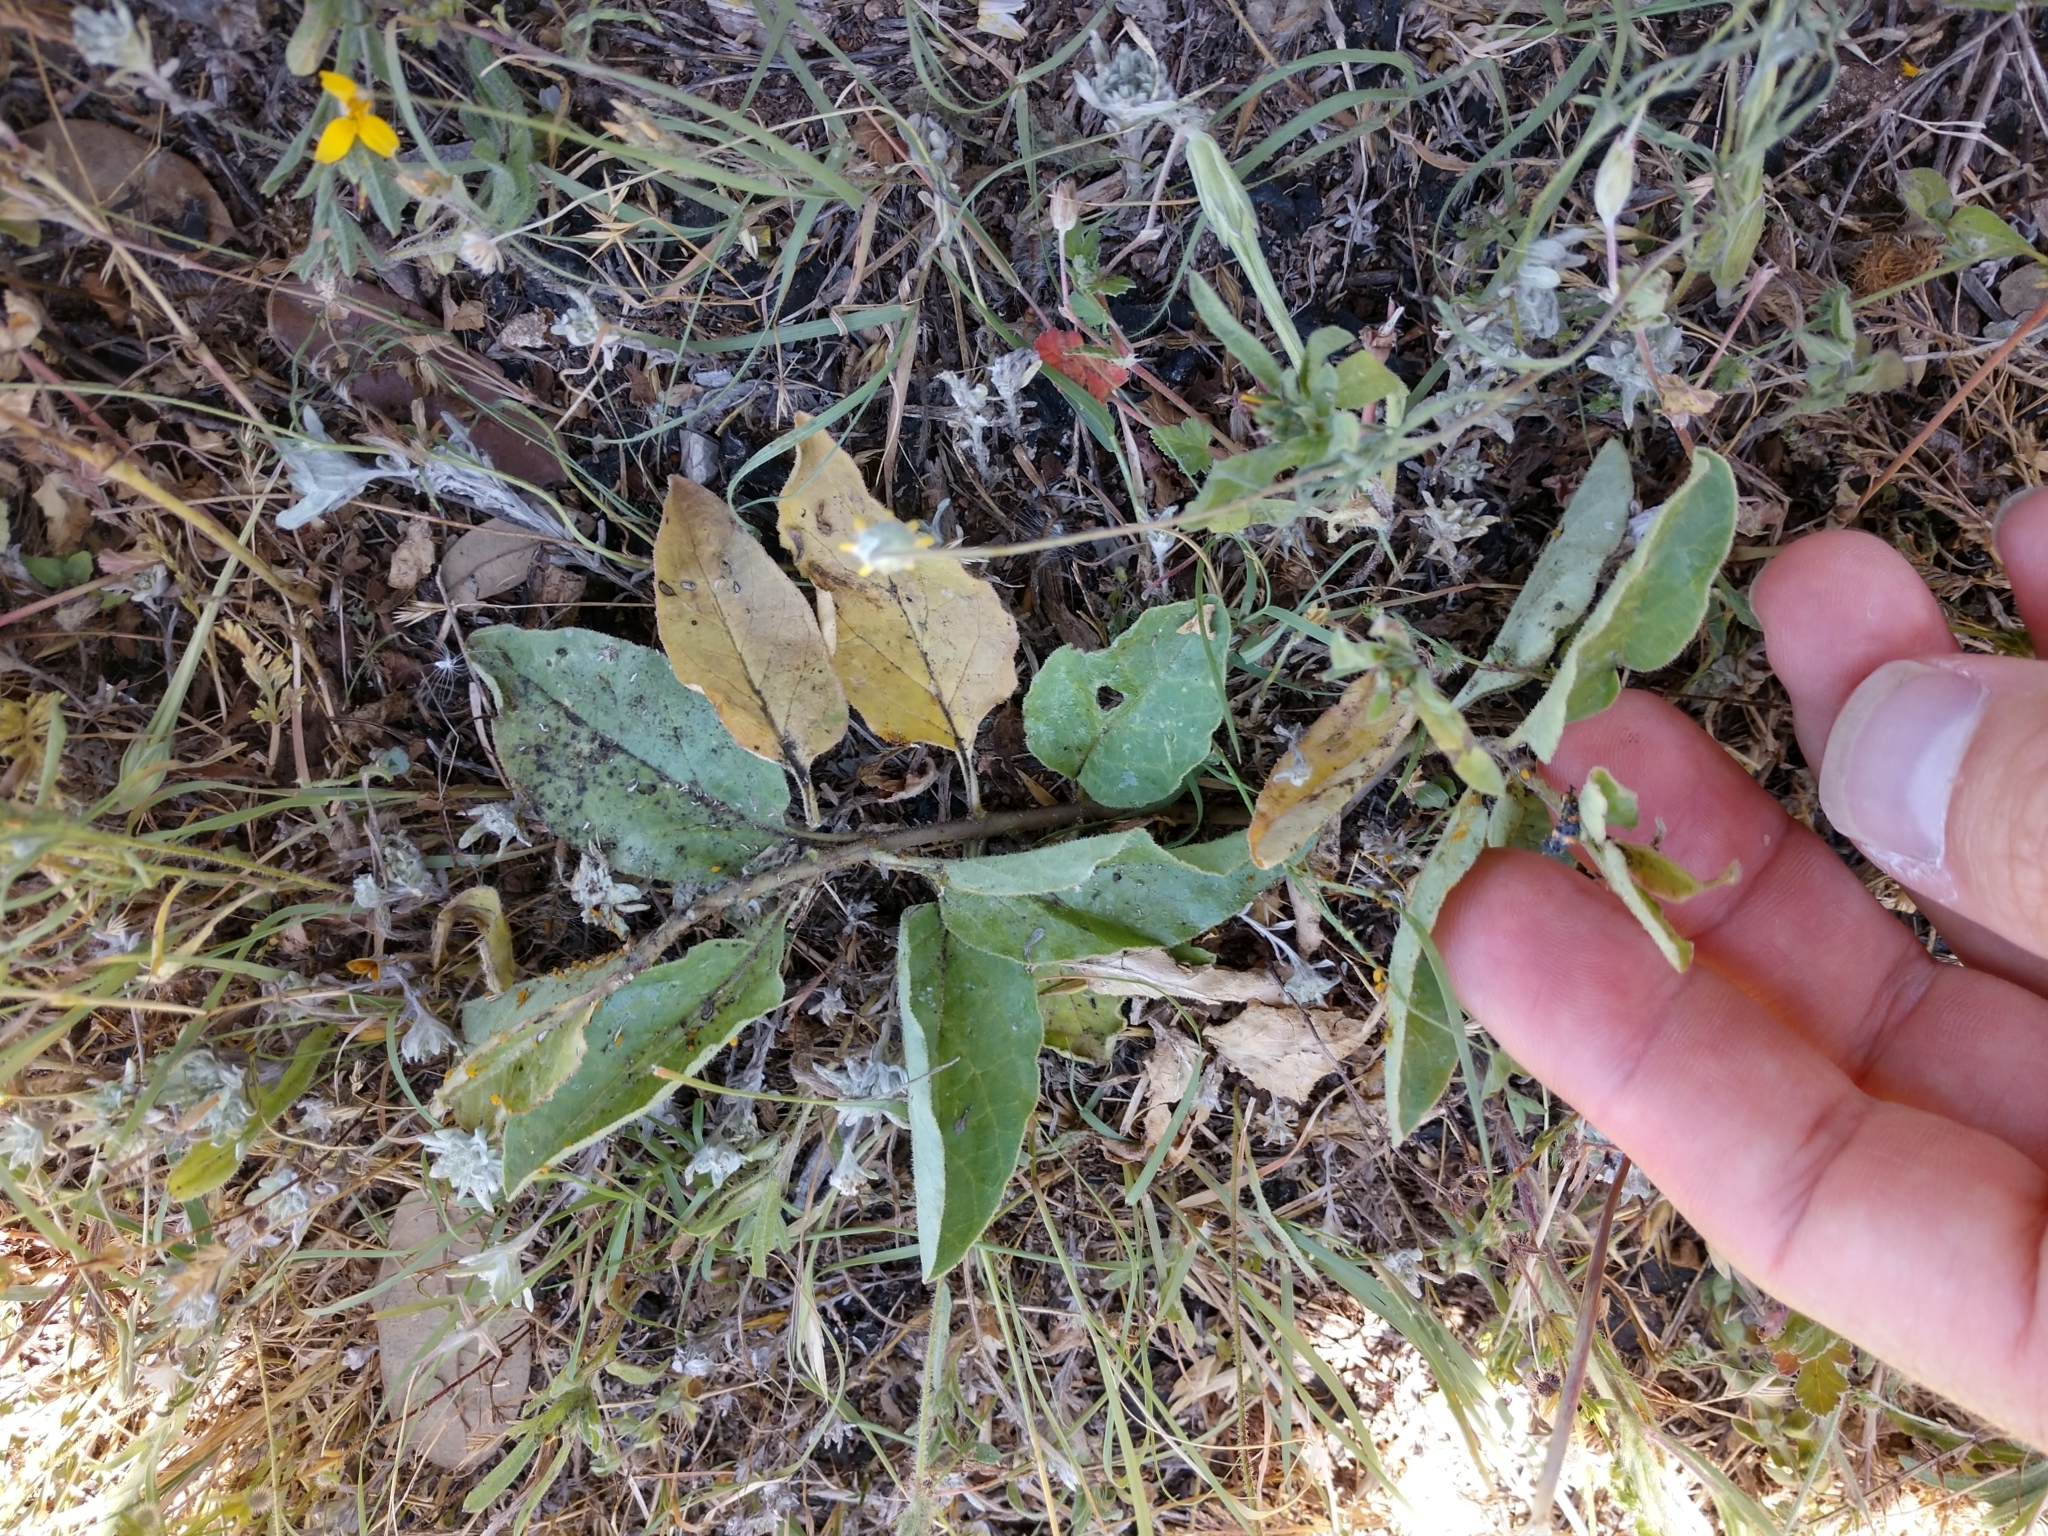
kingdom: Plantae
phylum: Tracheophyta
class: Magnoliopsida
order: Gentianales
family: Apocynaceae
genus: Asclepias
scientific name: Asclepias oenotheroides
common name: Zizotes milkweed
